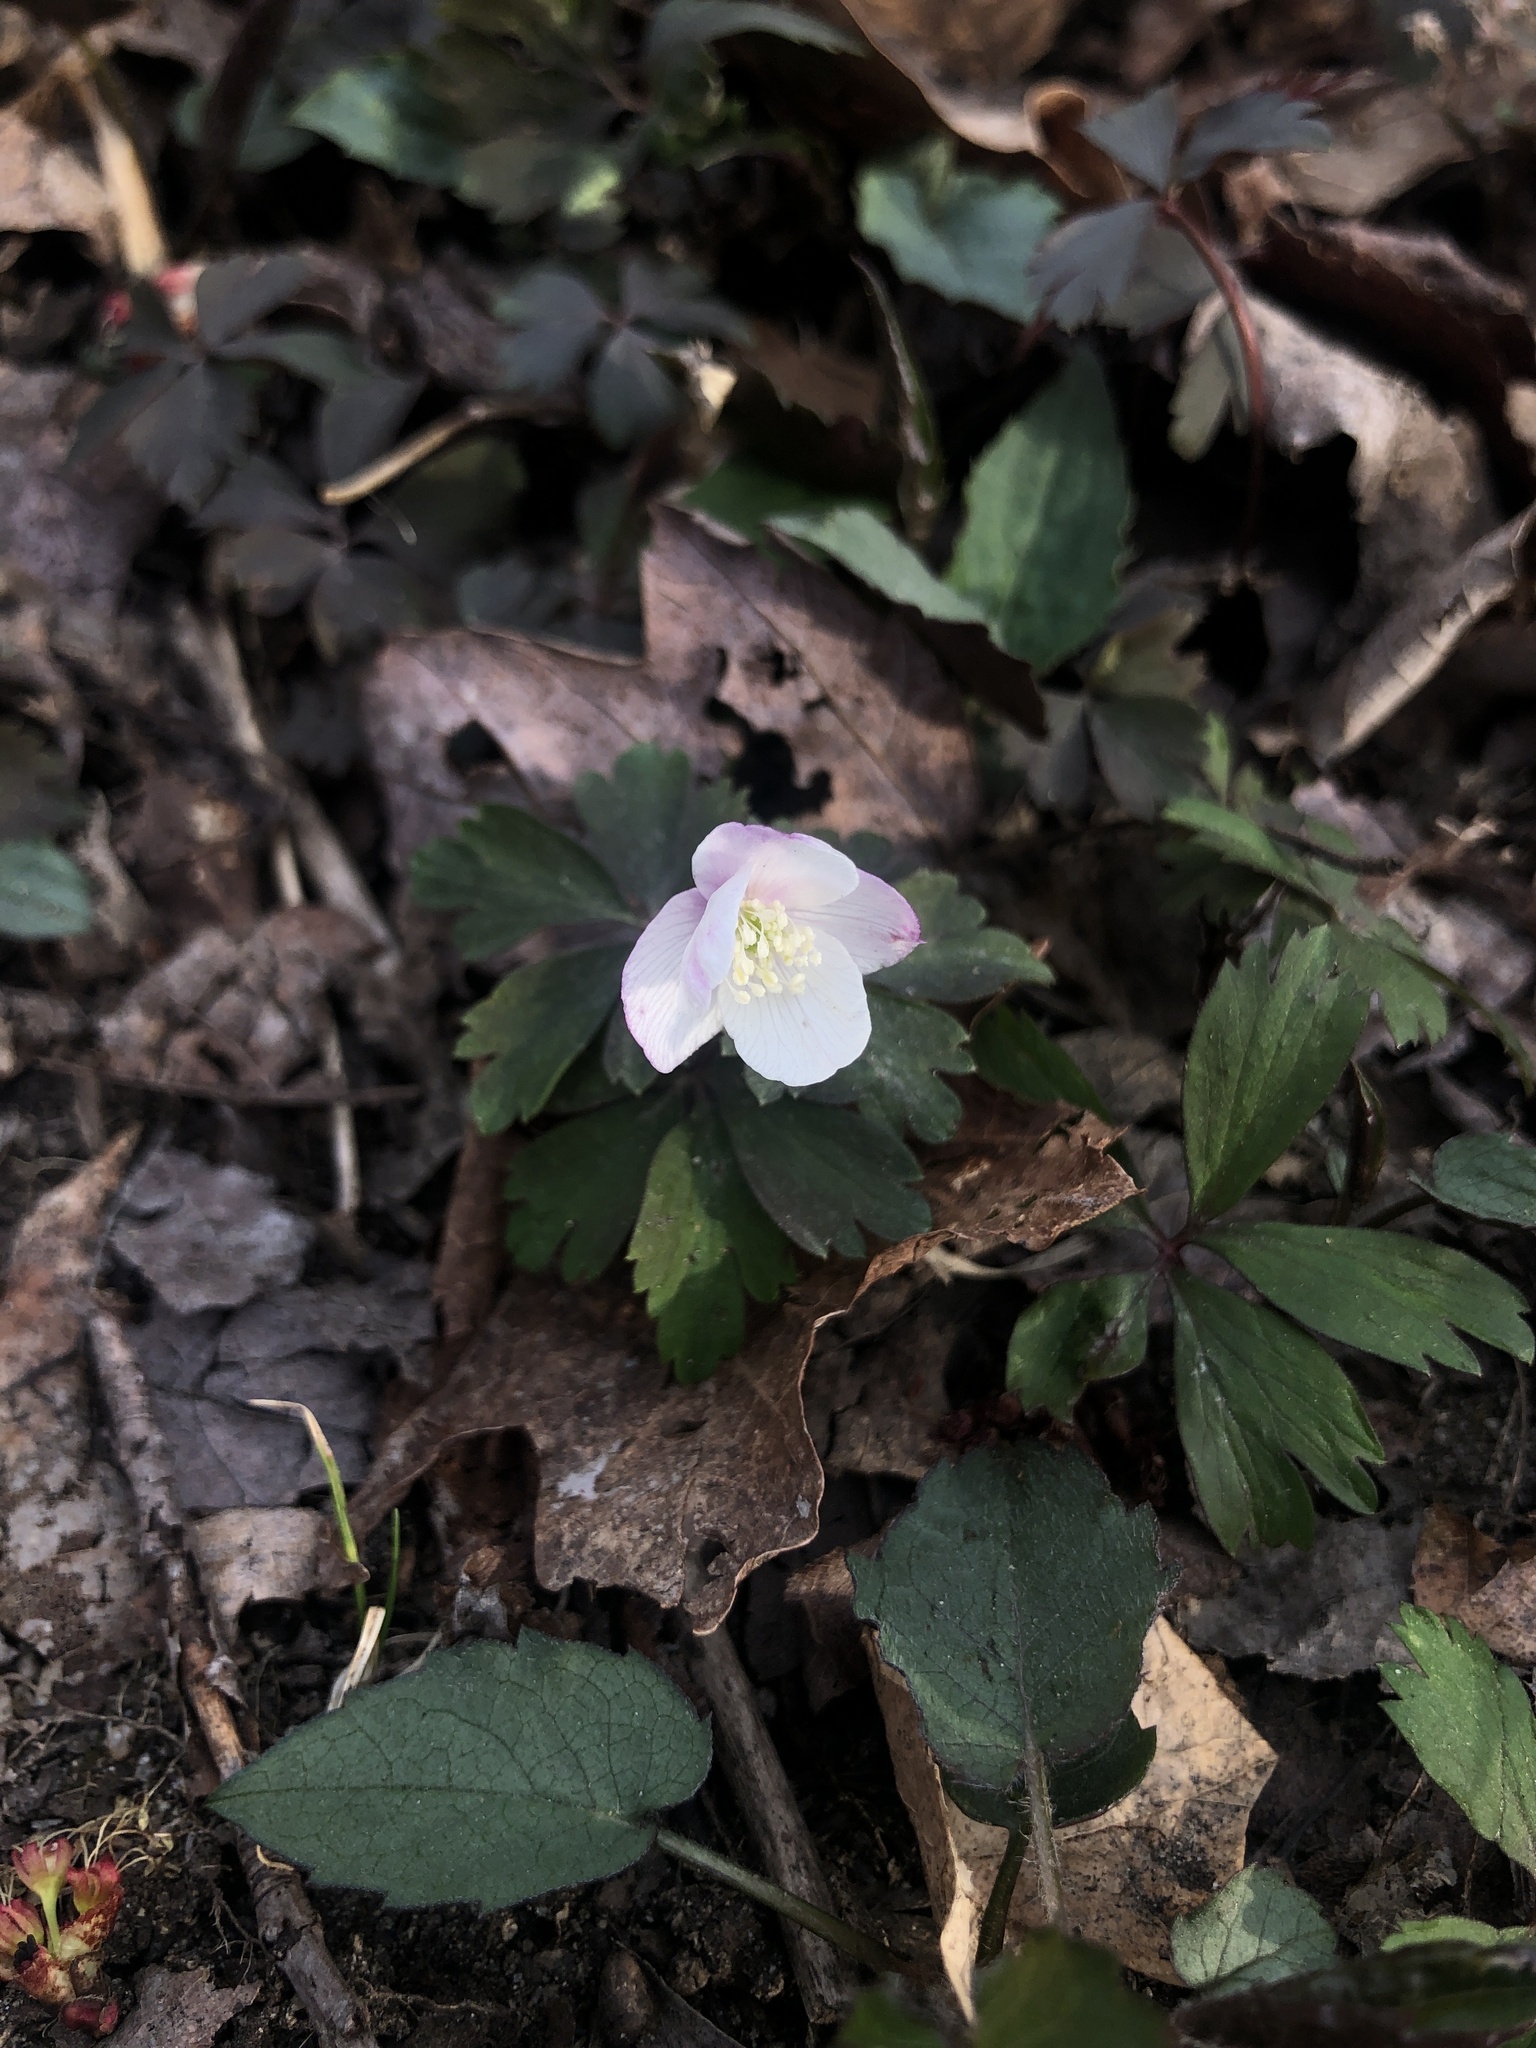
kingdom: Plantae
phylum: Tracheophyta
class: Magnoliopsida
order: Ranunculales
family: Ranunculaceae
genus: Anemone
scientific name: Anemone quinquefolia
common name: Wood anemone
